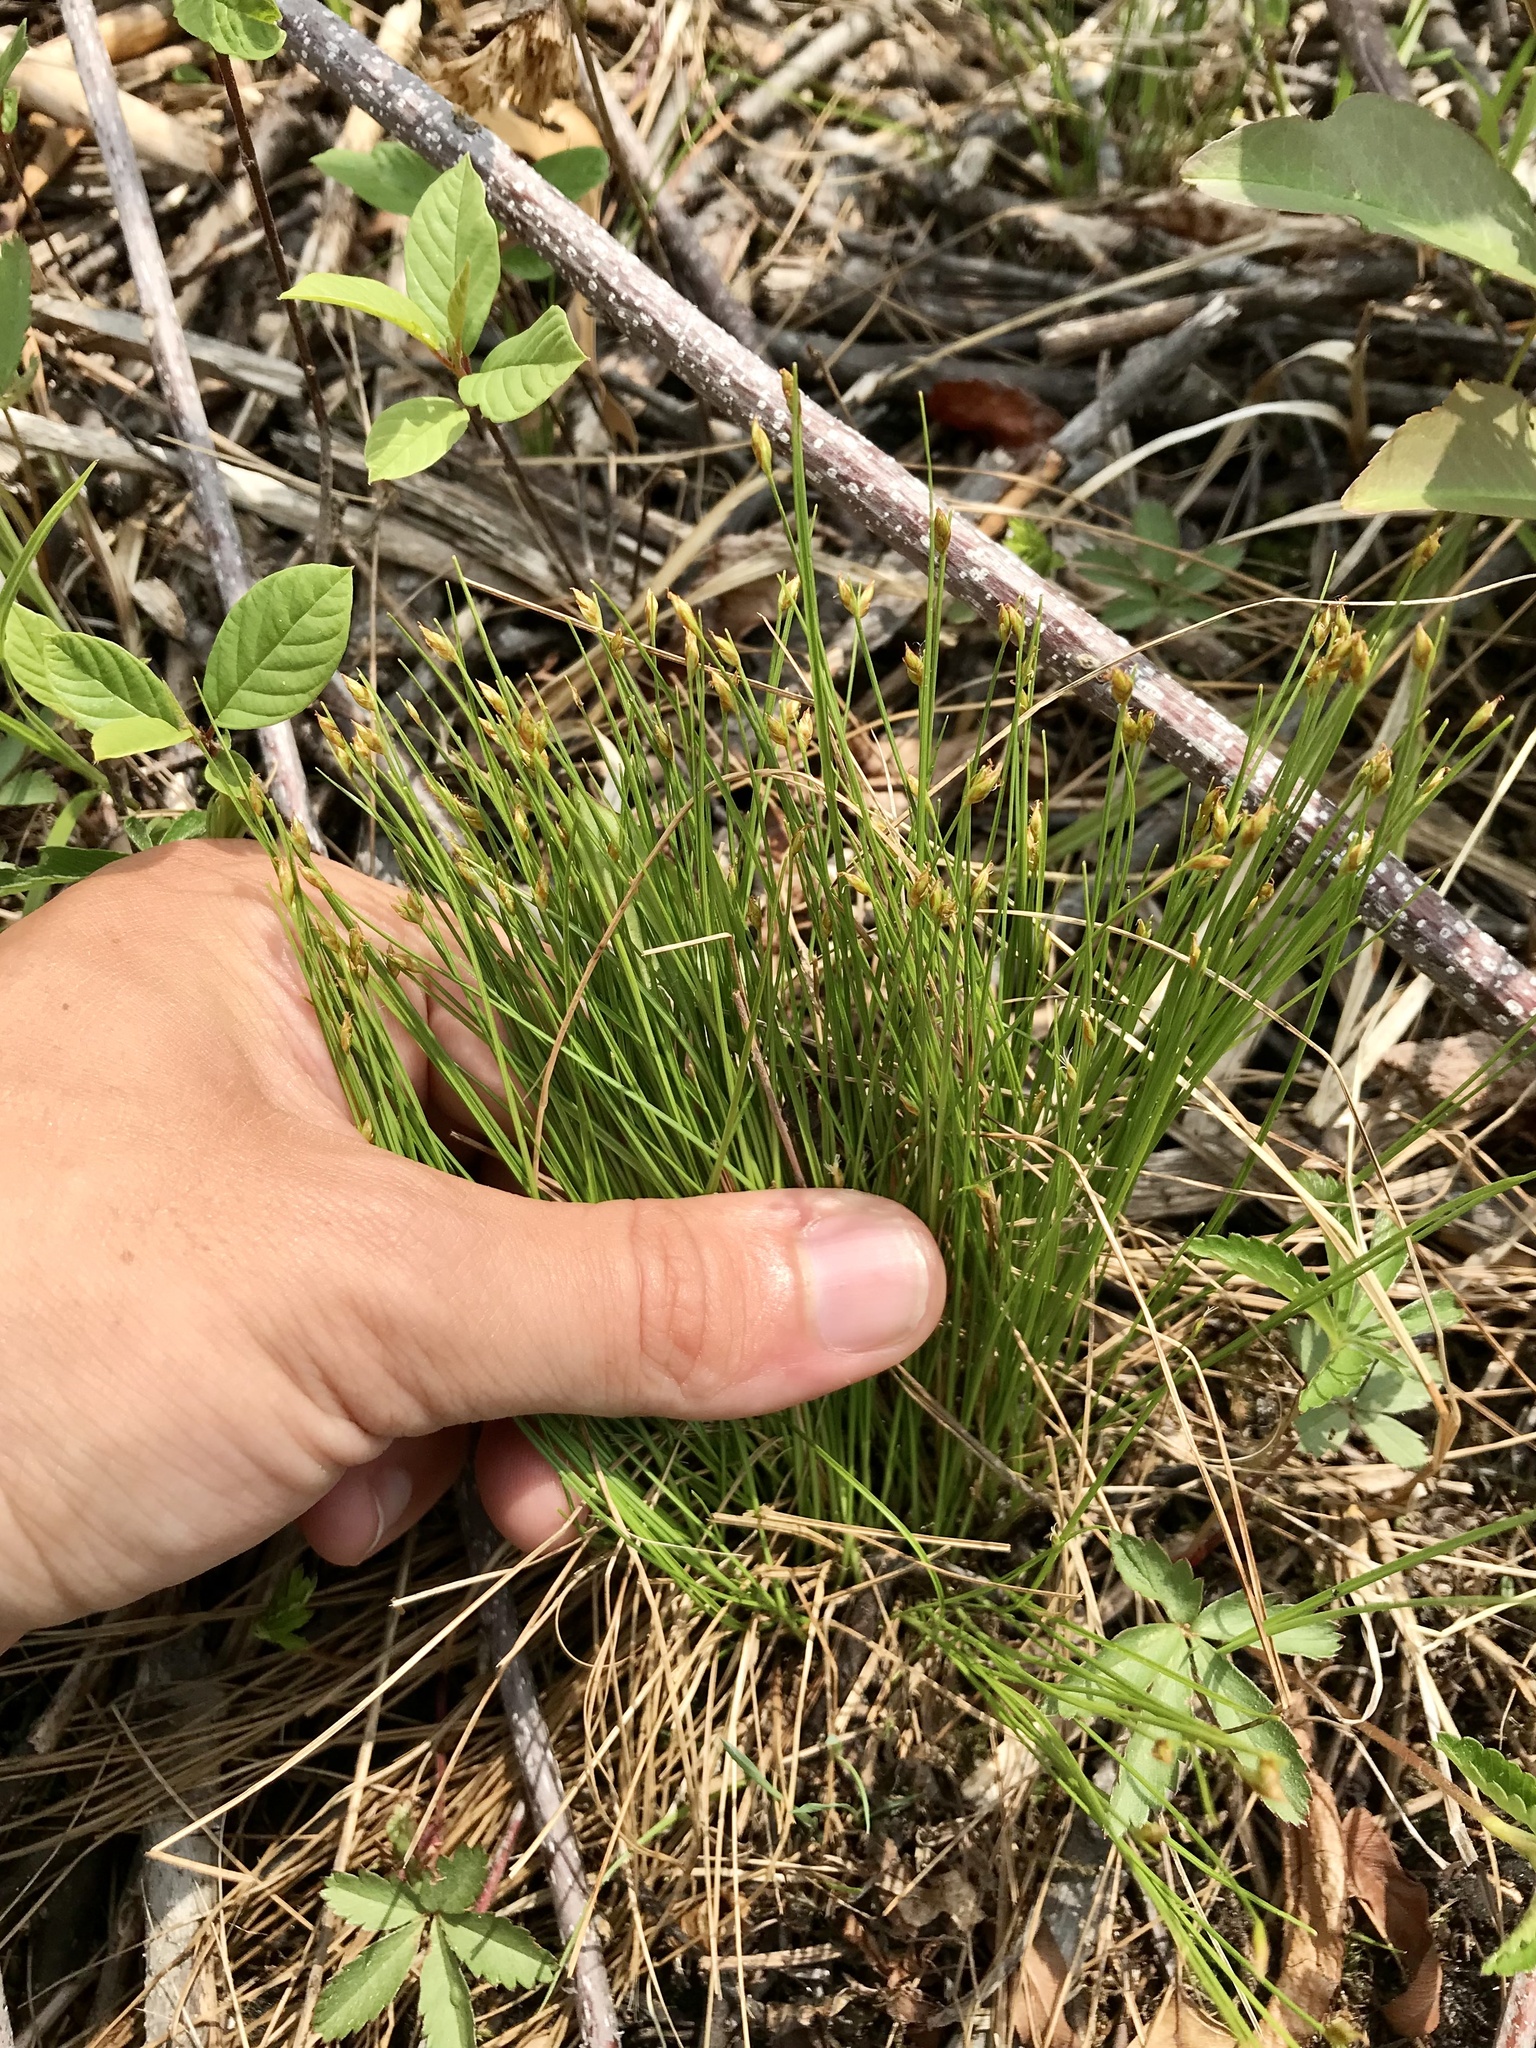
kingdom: Plantae
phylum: Tracheophyta
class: Liliopsida
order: Poales
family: Cyperaceae
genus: Trichophorum
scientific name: Trichophorum clintonii
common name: Clinton's bulrush
